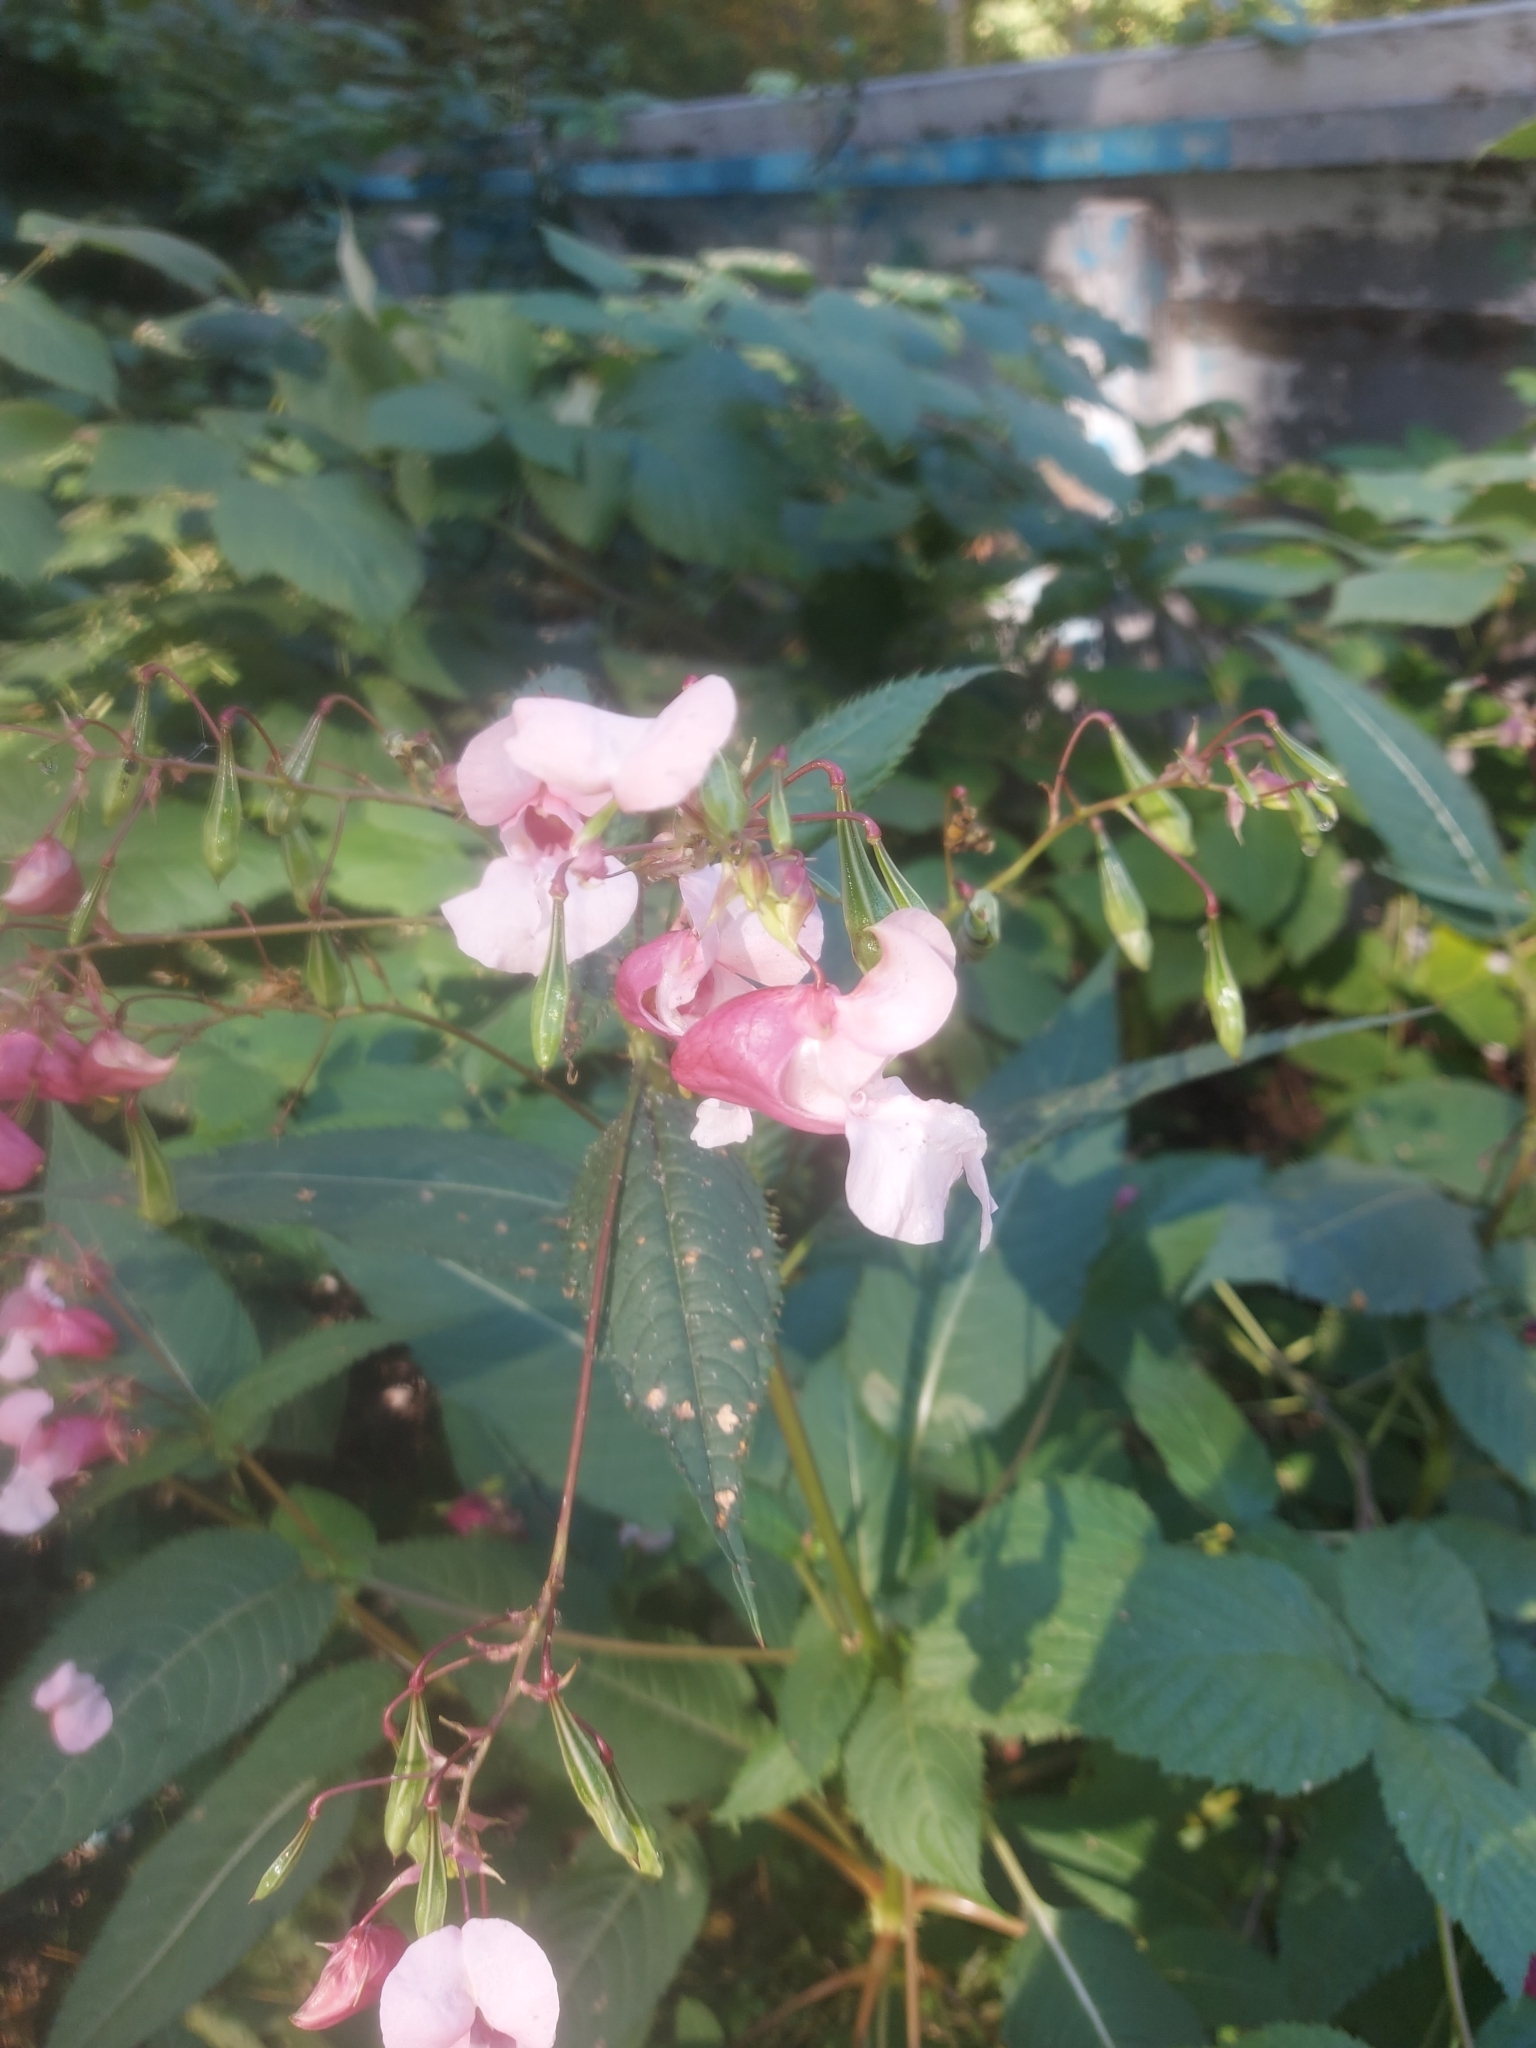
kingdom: Plantae
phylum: Tracheophyta
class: Magnoliopsida
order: Ericales
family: Balsaminaceae
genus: Impatiens
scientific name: Impatiens glandulifera
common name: Himalayan balsam
